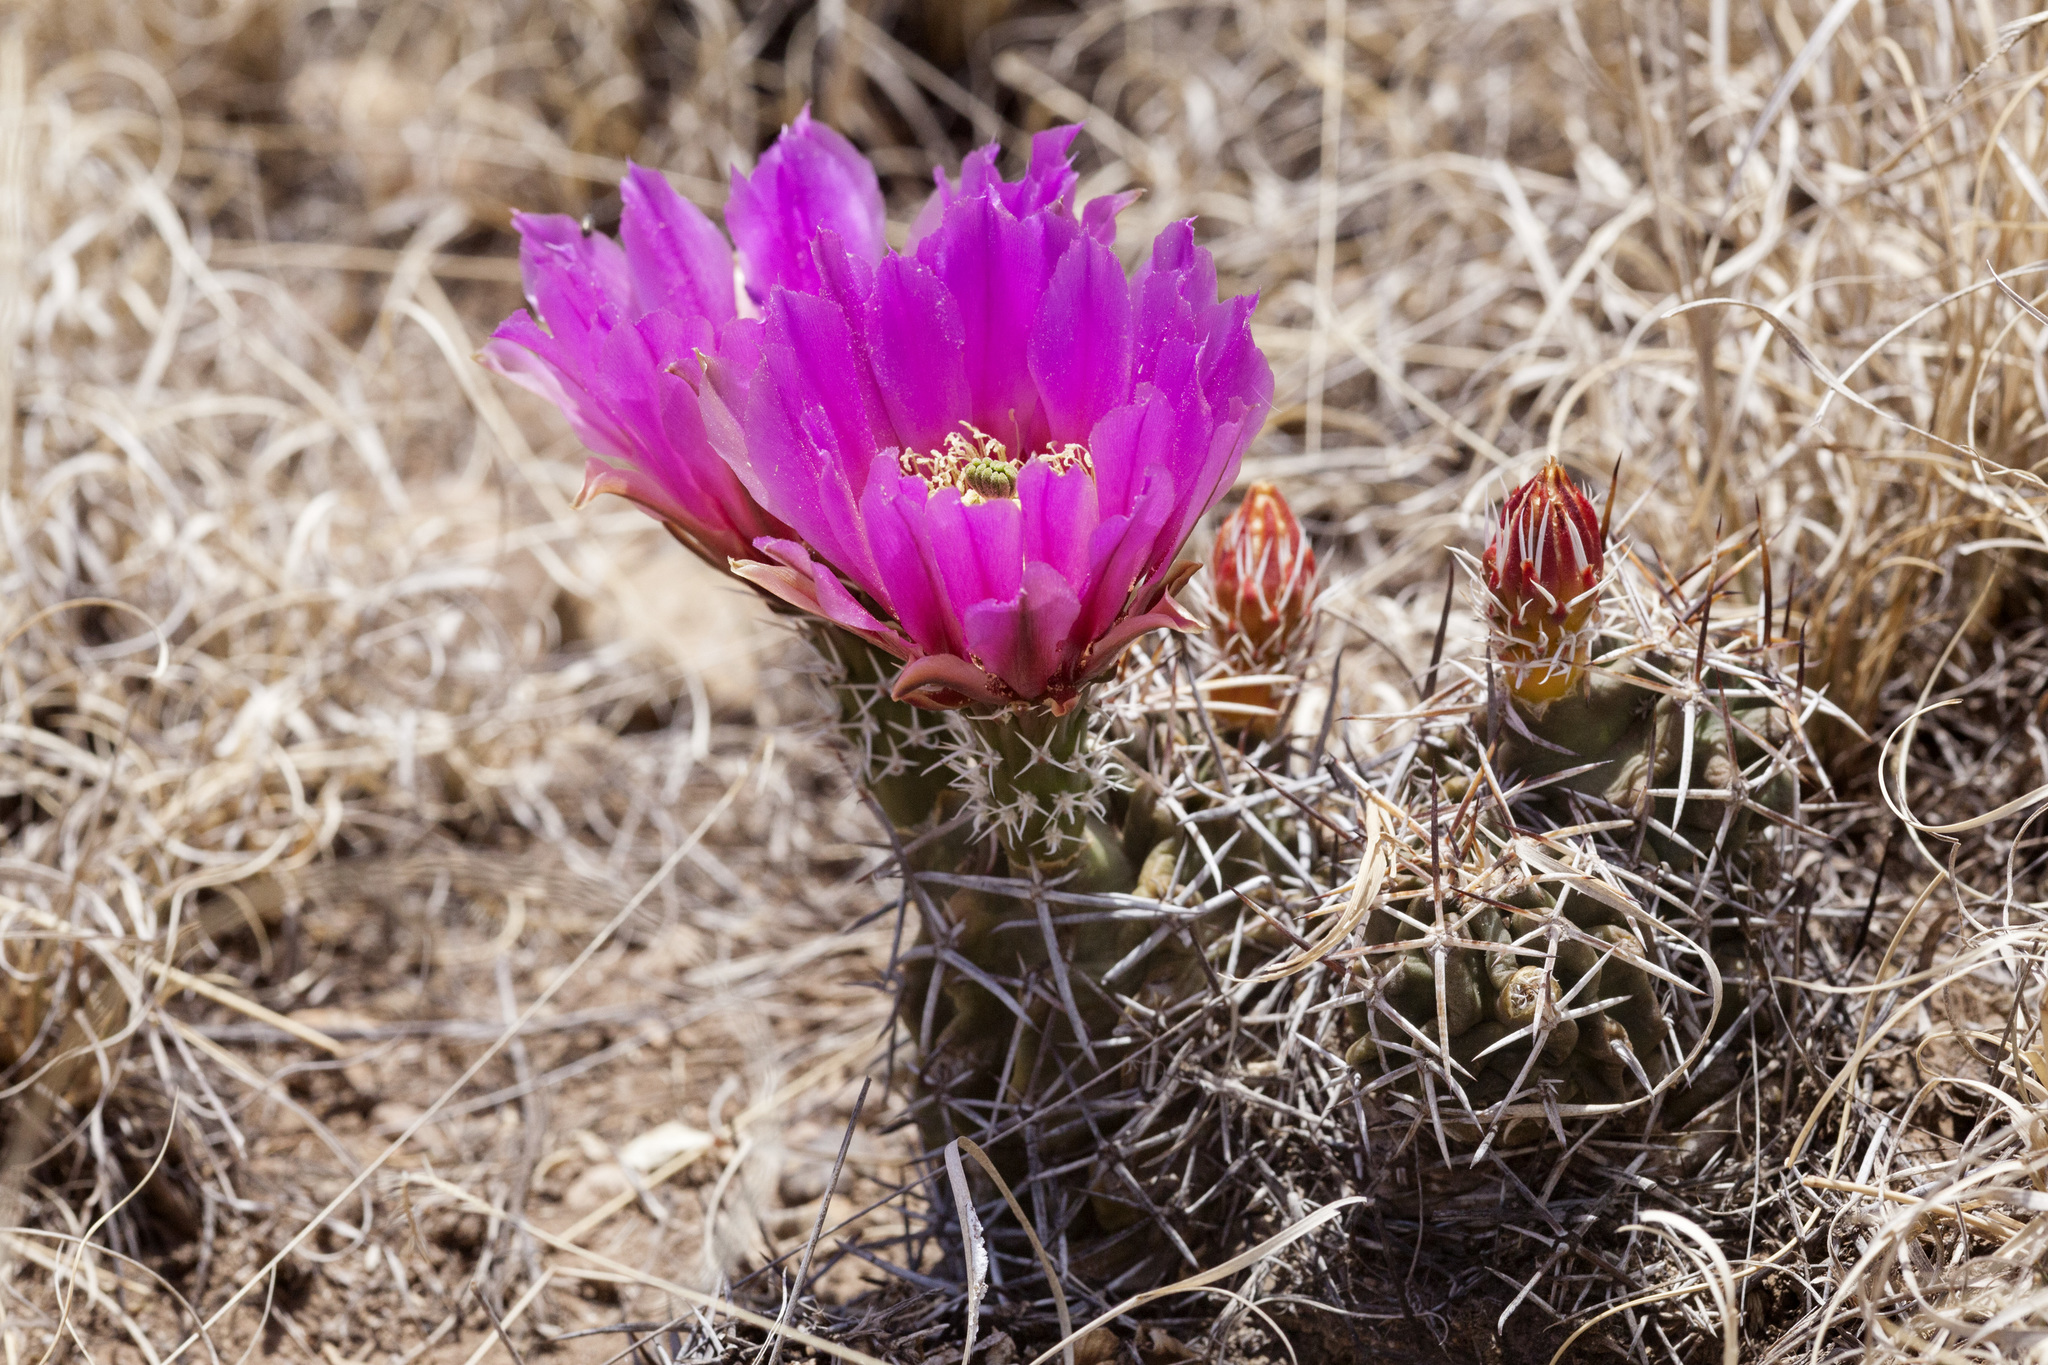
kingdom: Plantae
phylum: Tracheophyta
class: Magnoliopsida
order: Caryophyllales
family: Cactaceae
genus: Echinocereus
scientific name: Echinocereus fendleri
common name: Fendler's hedgehog cactus
